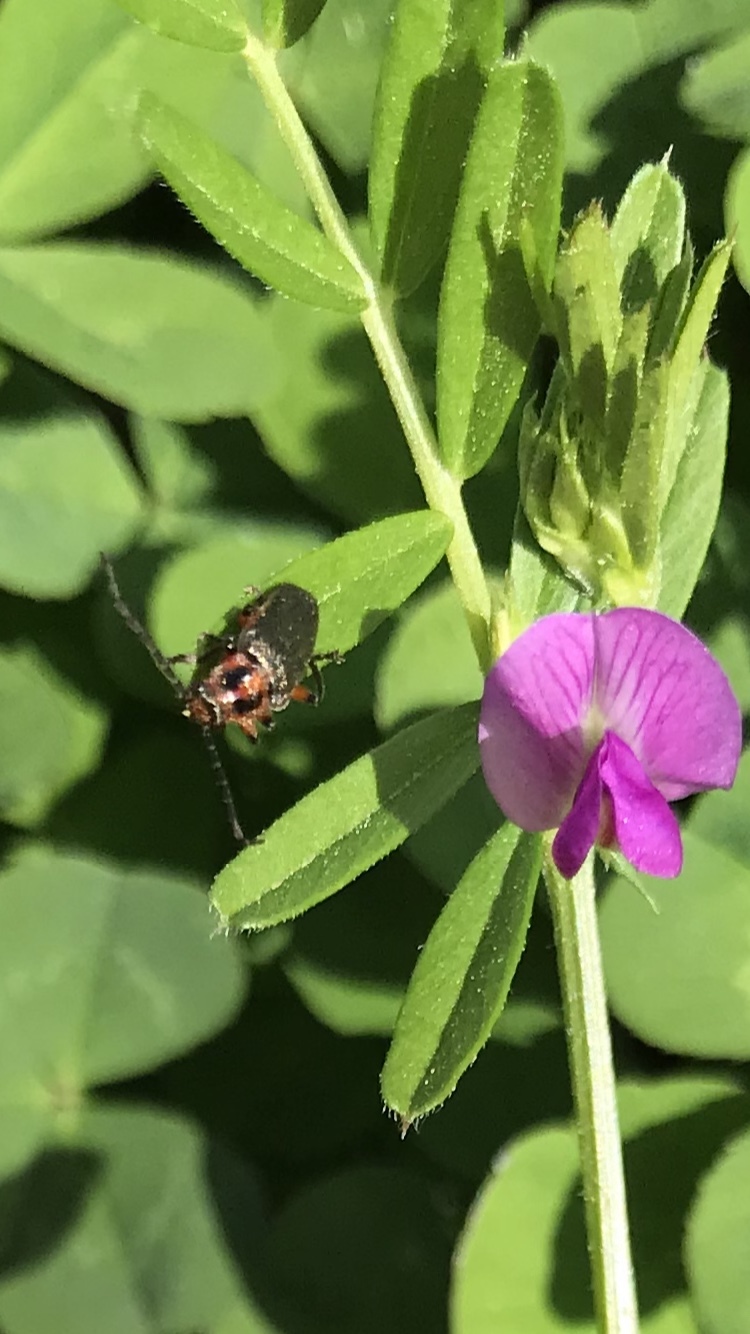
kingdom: Animalia
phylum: Arthropoda
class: Insecta
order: Coleoptera
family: Cantharidae
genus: Atalantycha
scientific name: Atalantycha bilineata
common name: Two-lined leatherwing
